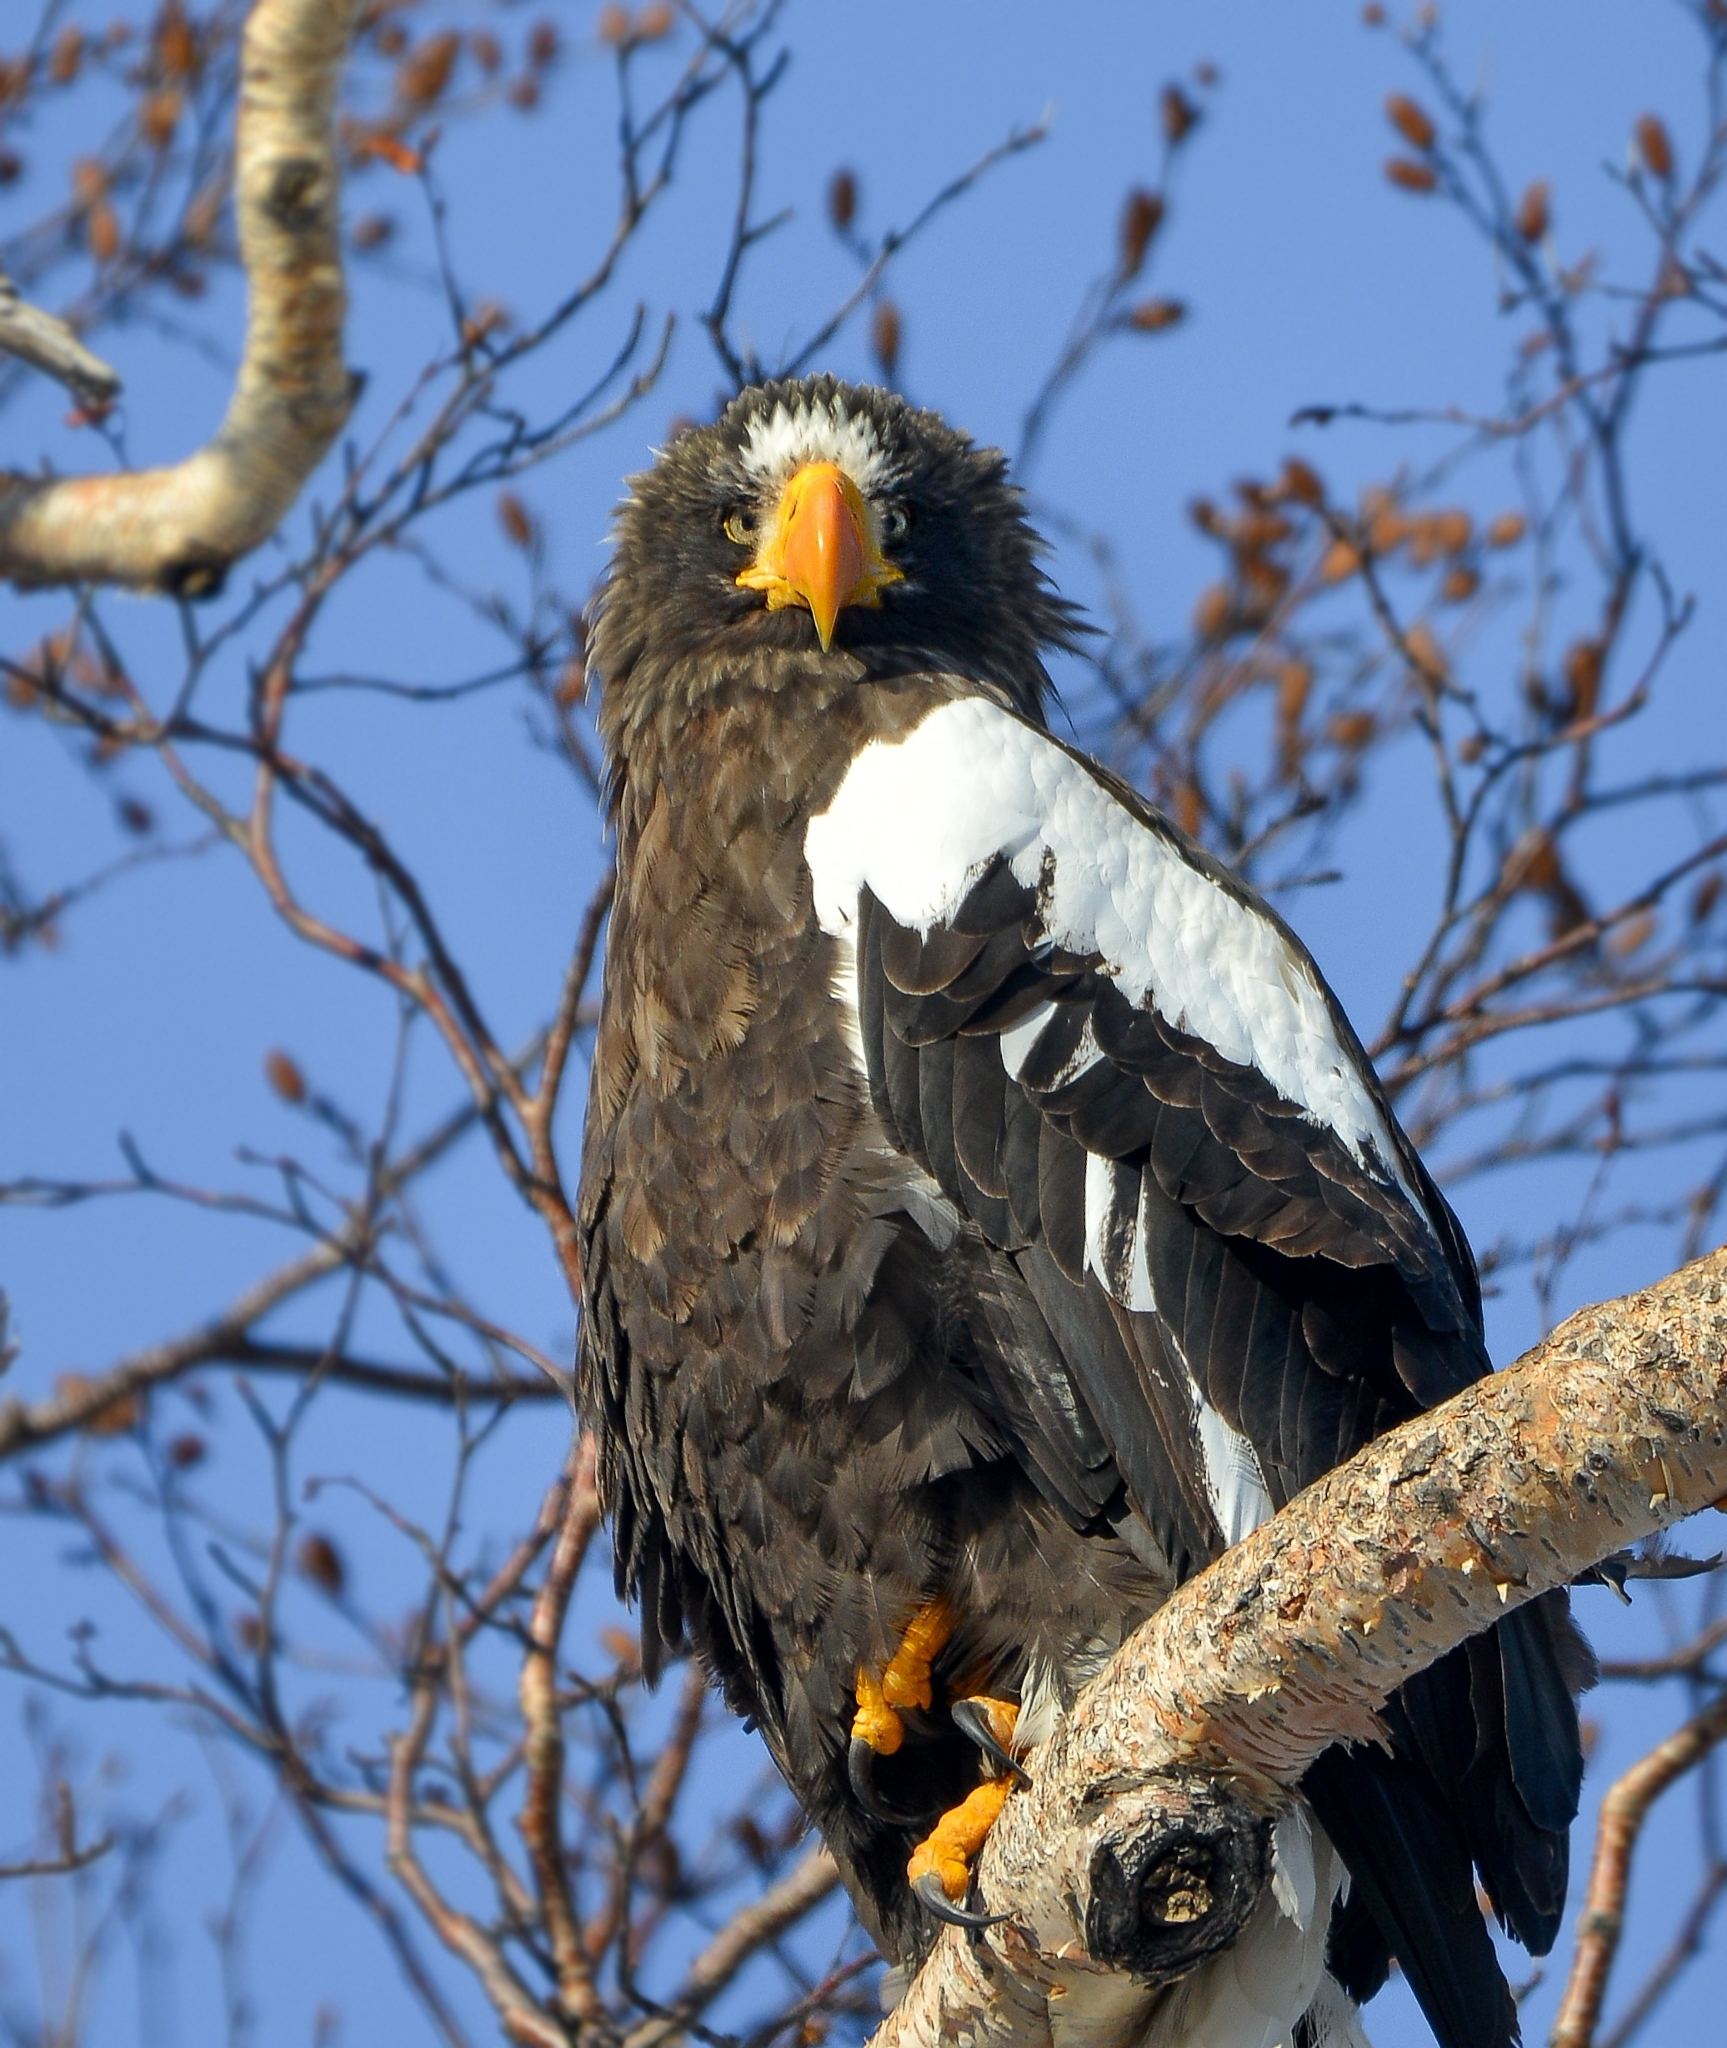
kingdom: Animalia
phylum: Chordata
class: Aves
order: Accipitriformes
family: Accipitridae
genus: Haliaeetus
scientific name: Haliaeetus pelagicus
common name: Steller's sea eagle
